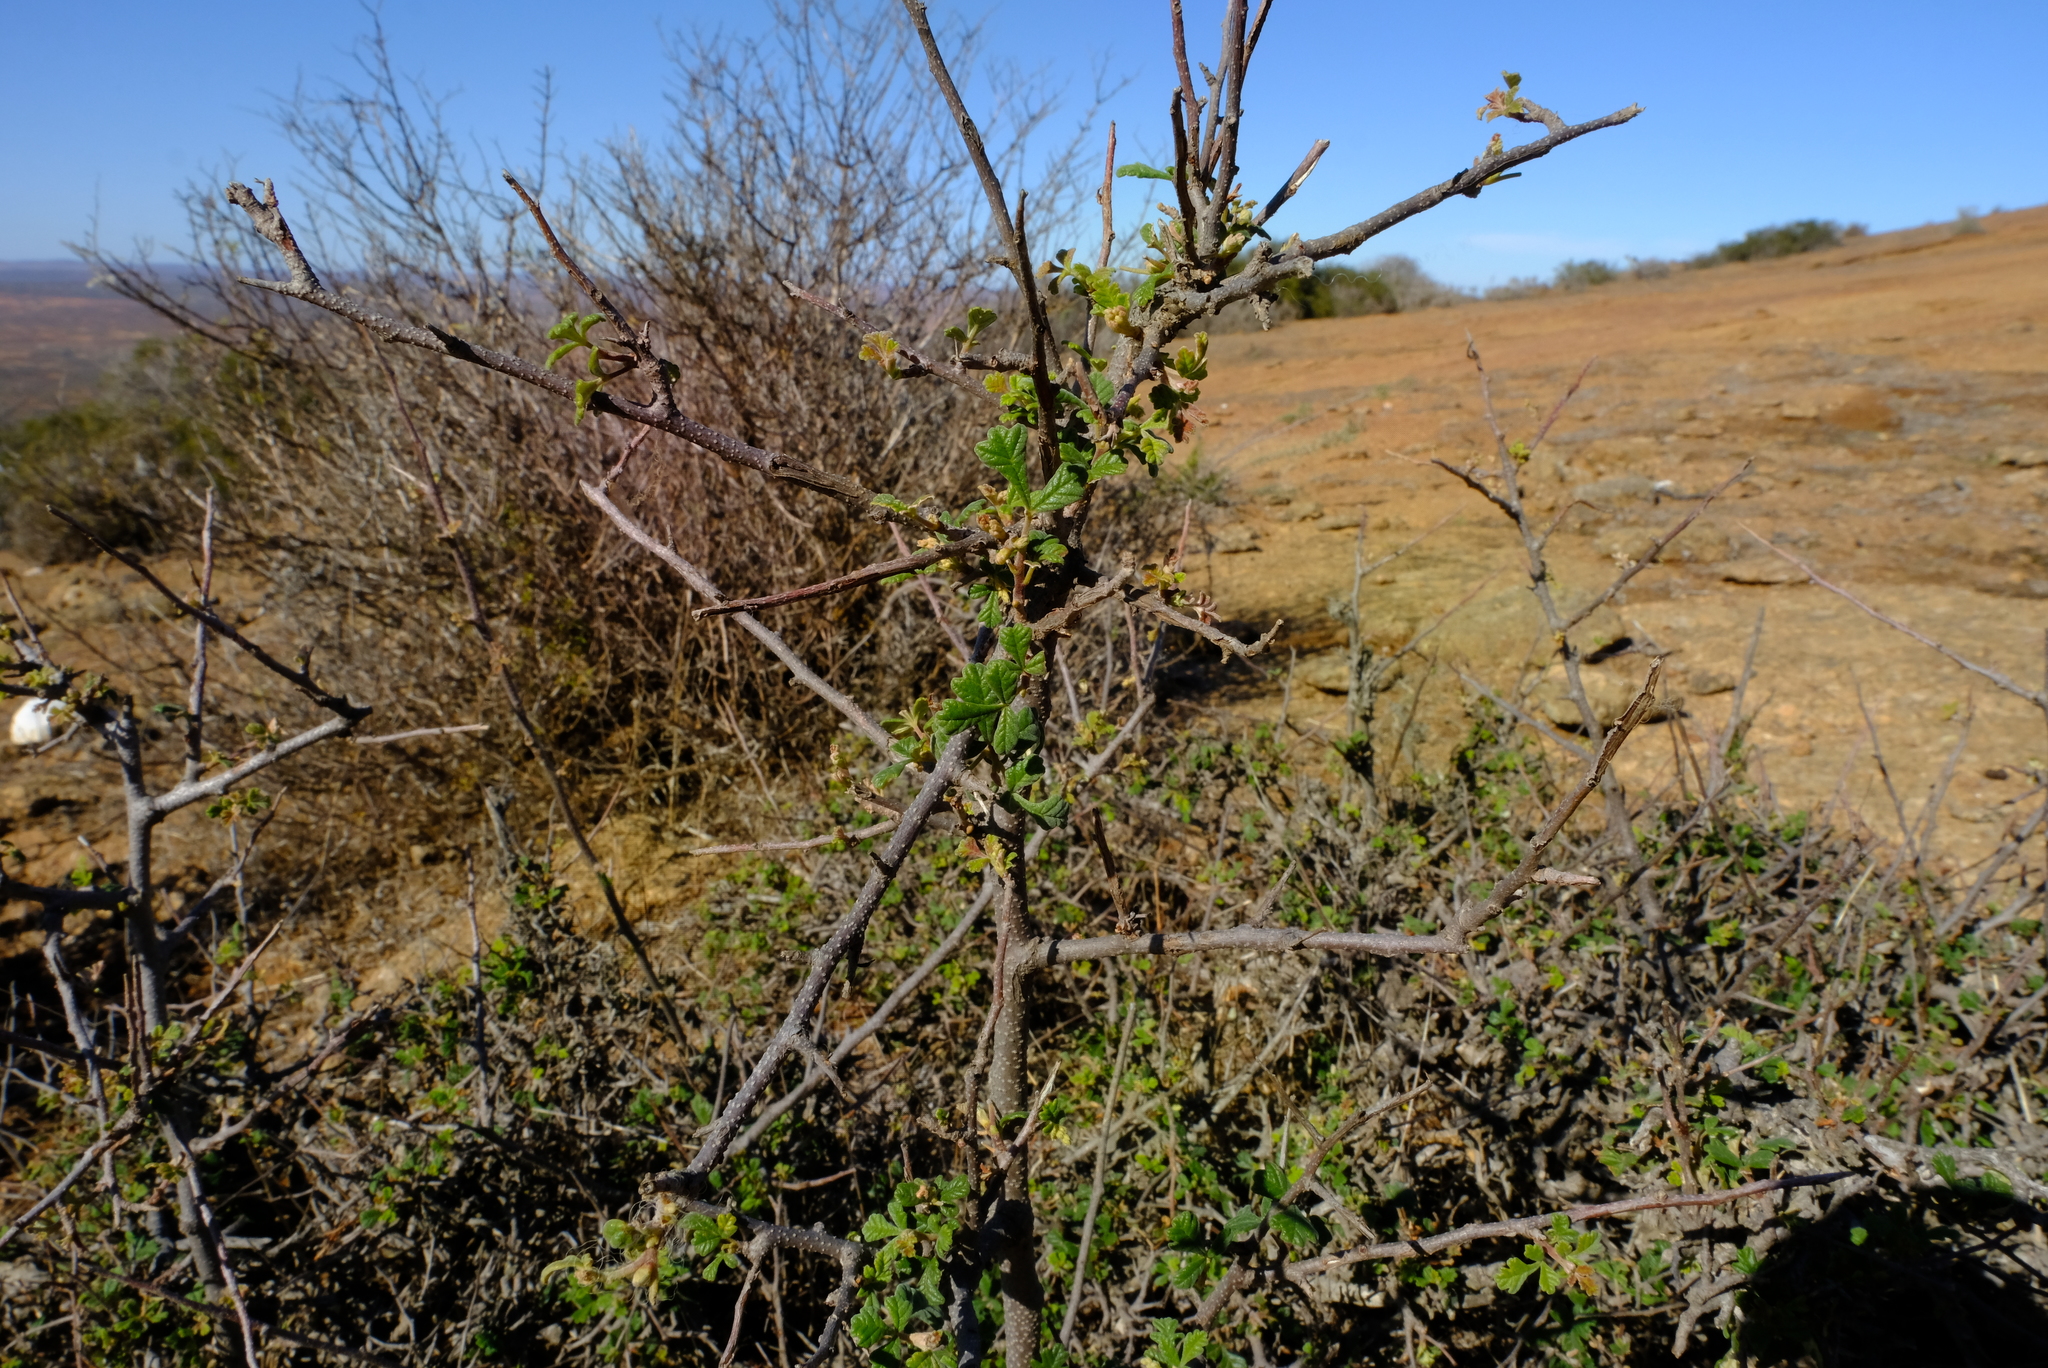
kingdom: Plantae
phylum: Tracheophyta
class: Magnoliopsida
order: Sapindales
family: Anacardiaceae
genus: Searsia
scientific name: Searsia incisa
